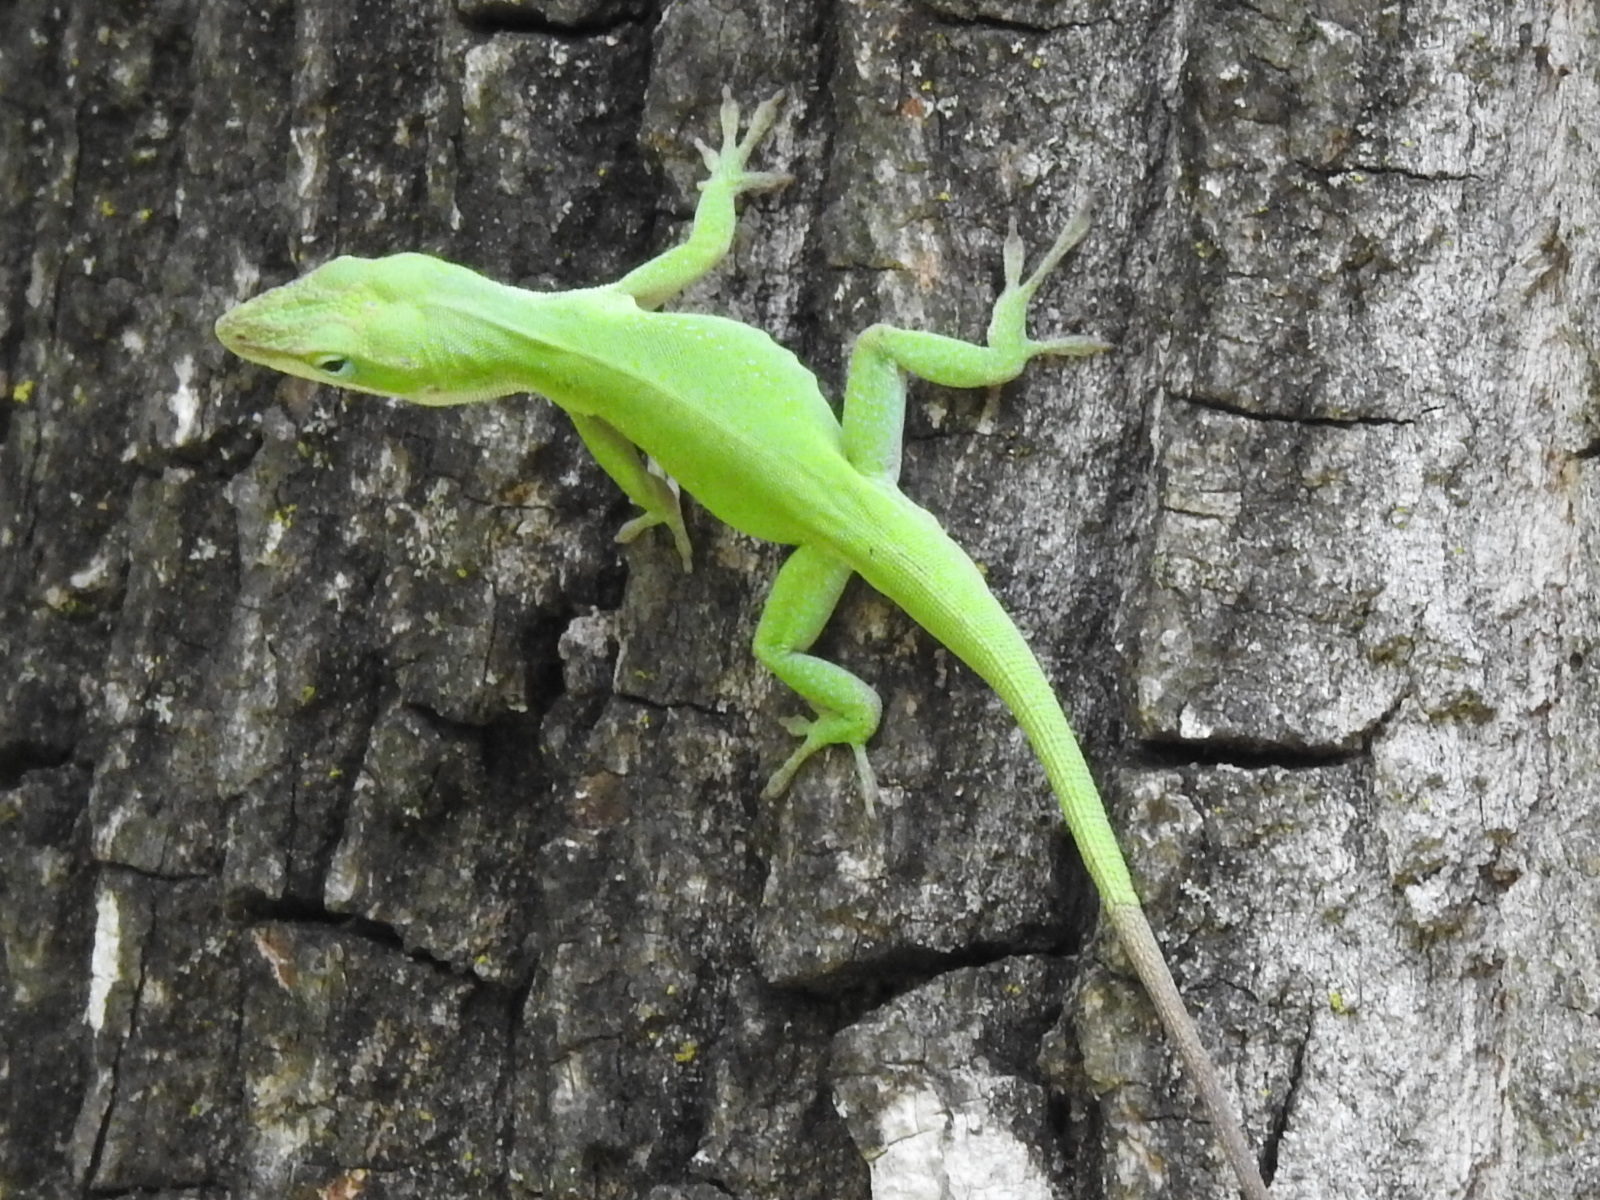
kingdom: Animalia
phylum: Chordata
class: Squamata
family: Dactyloidae
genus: Anolis
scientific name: Anolis carolinensis
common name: Green anole
